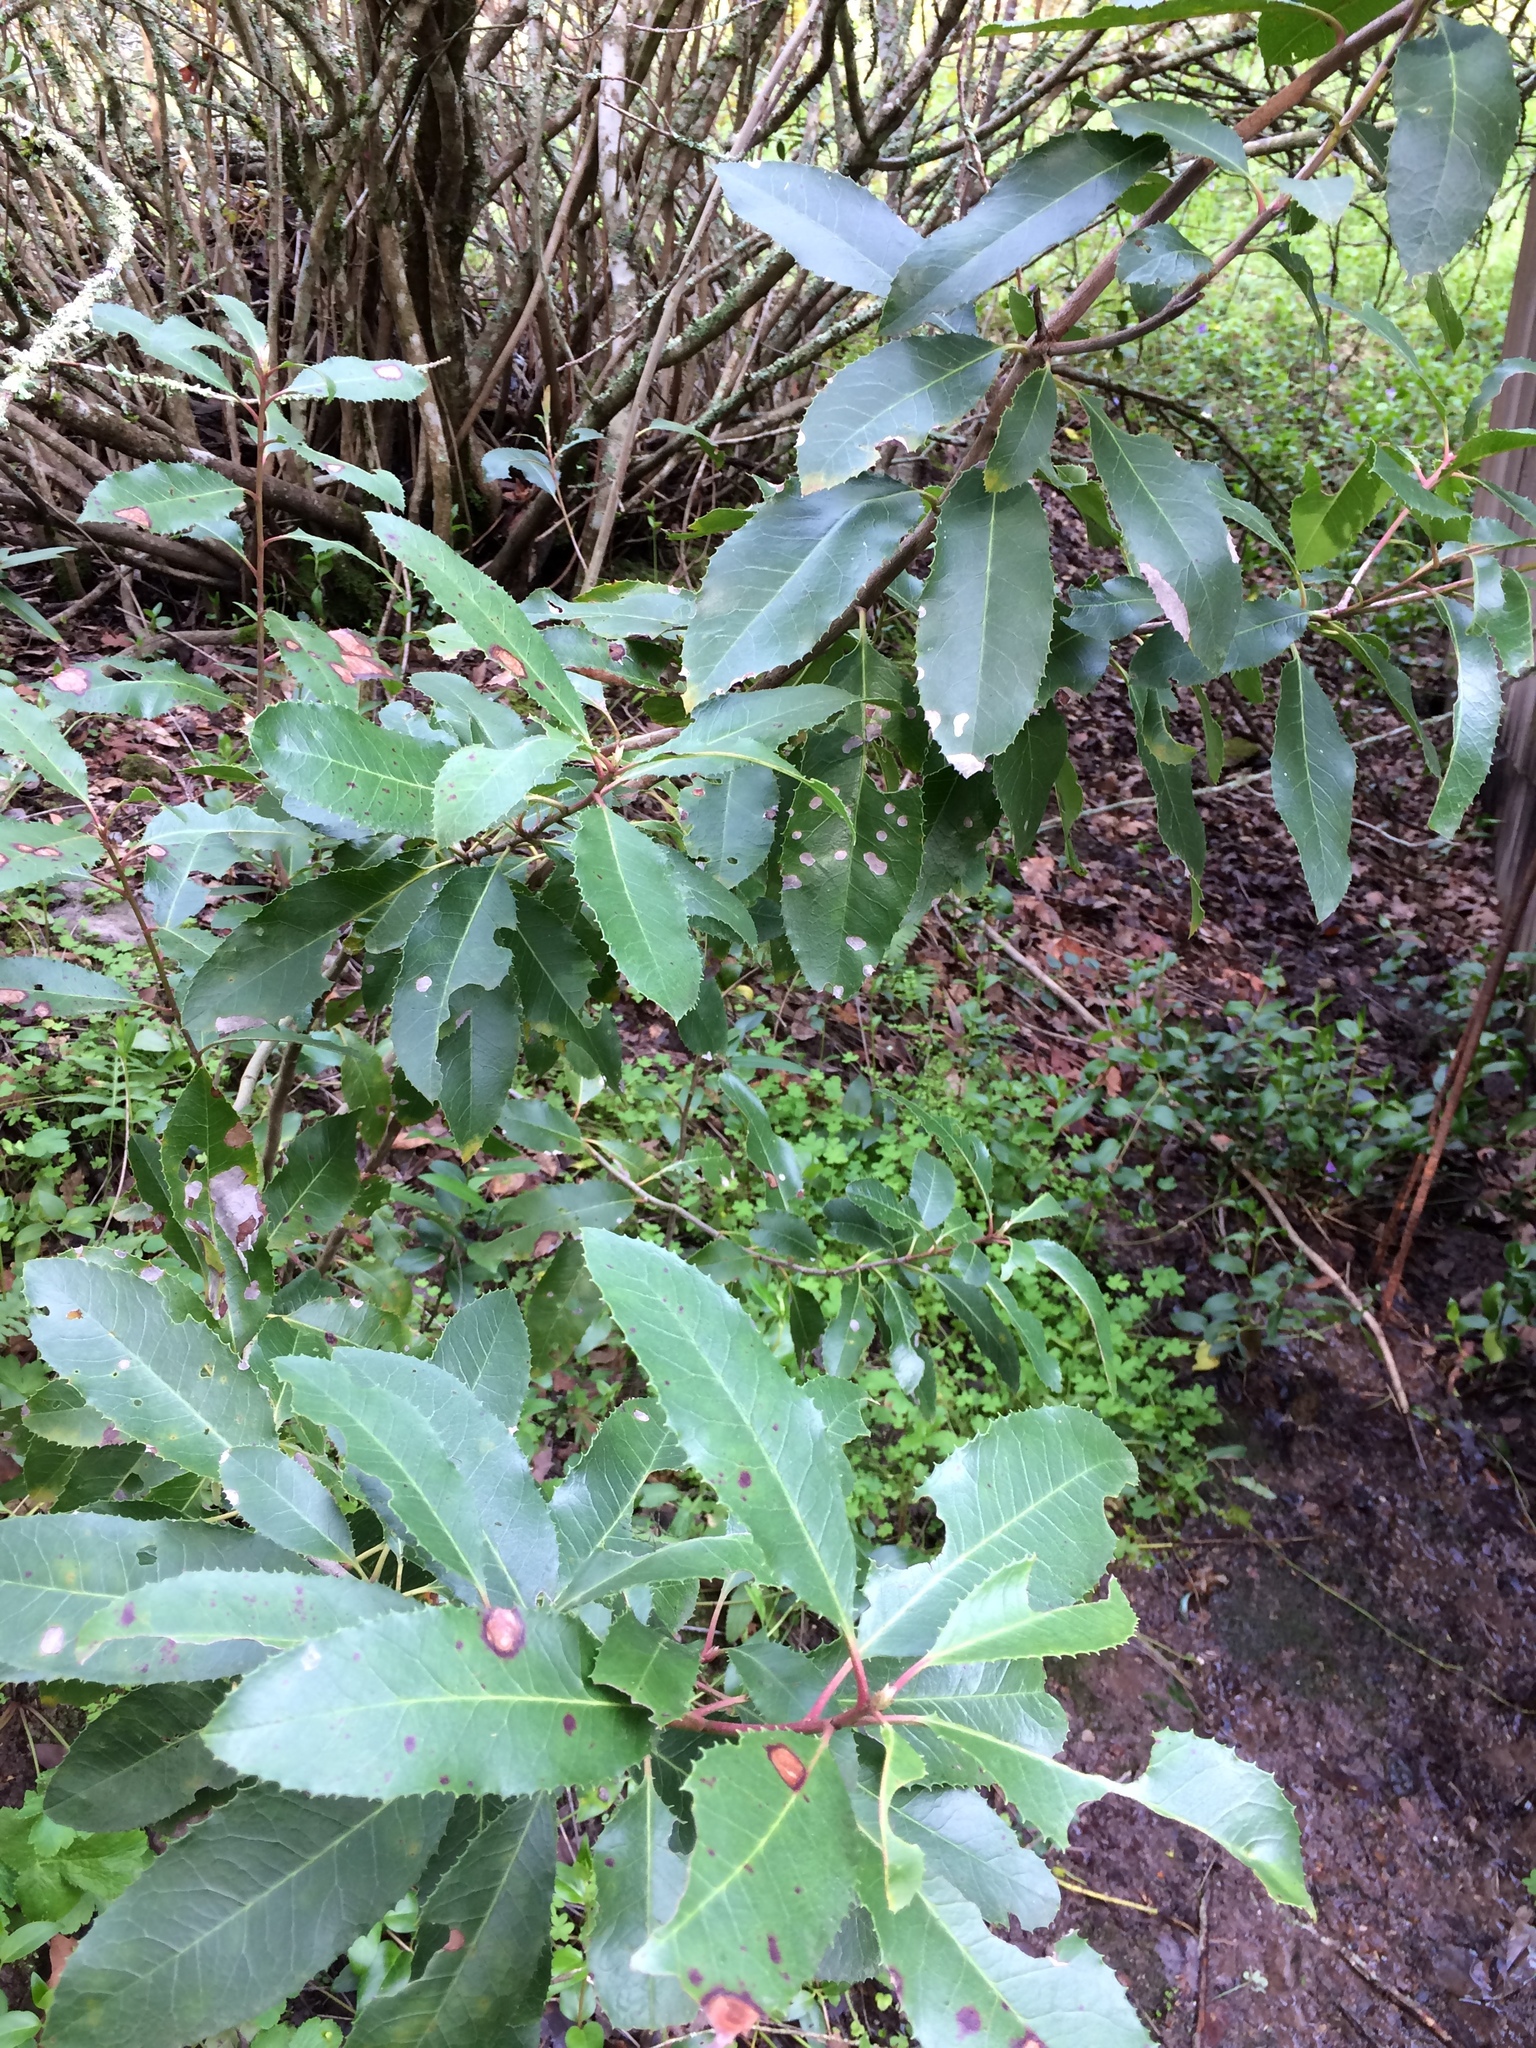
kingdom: Plantae
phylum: Tracheophyta
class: Magnoliopsida
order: Rosales
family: Rosaceae
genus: Heteromeles
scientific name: Heteromeles arbutifolia
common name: California-holly
